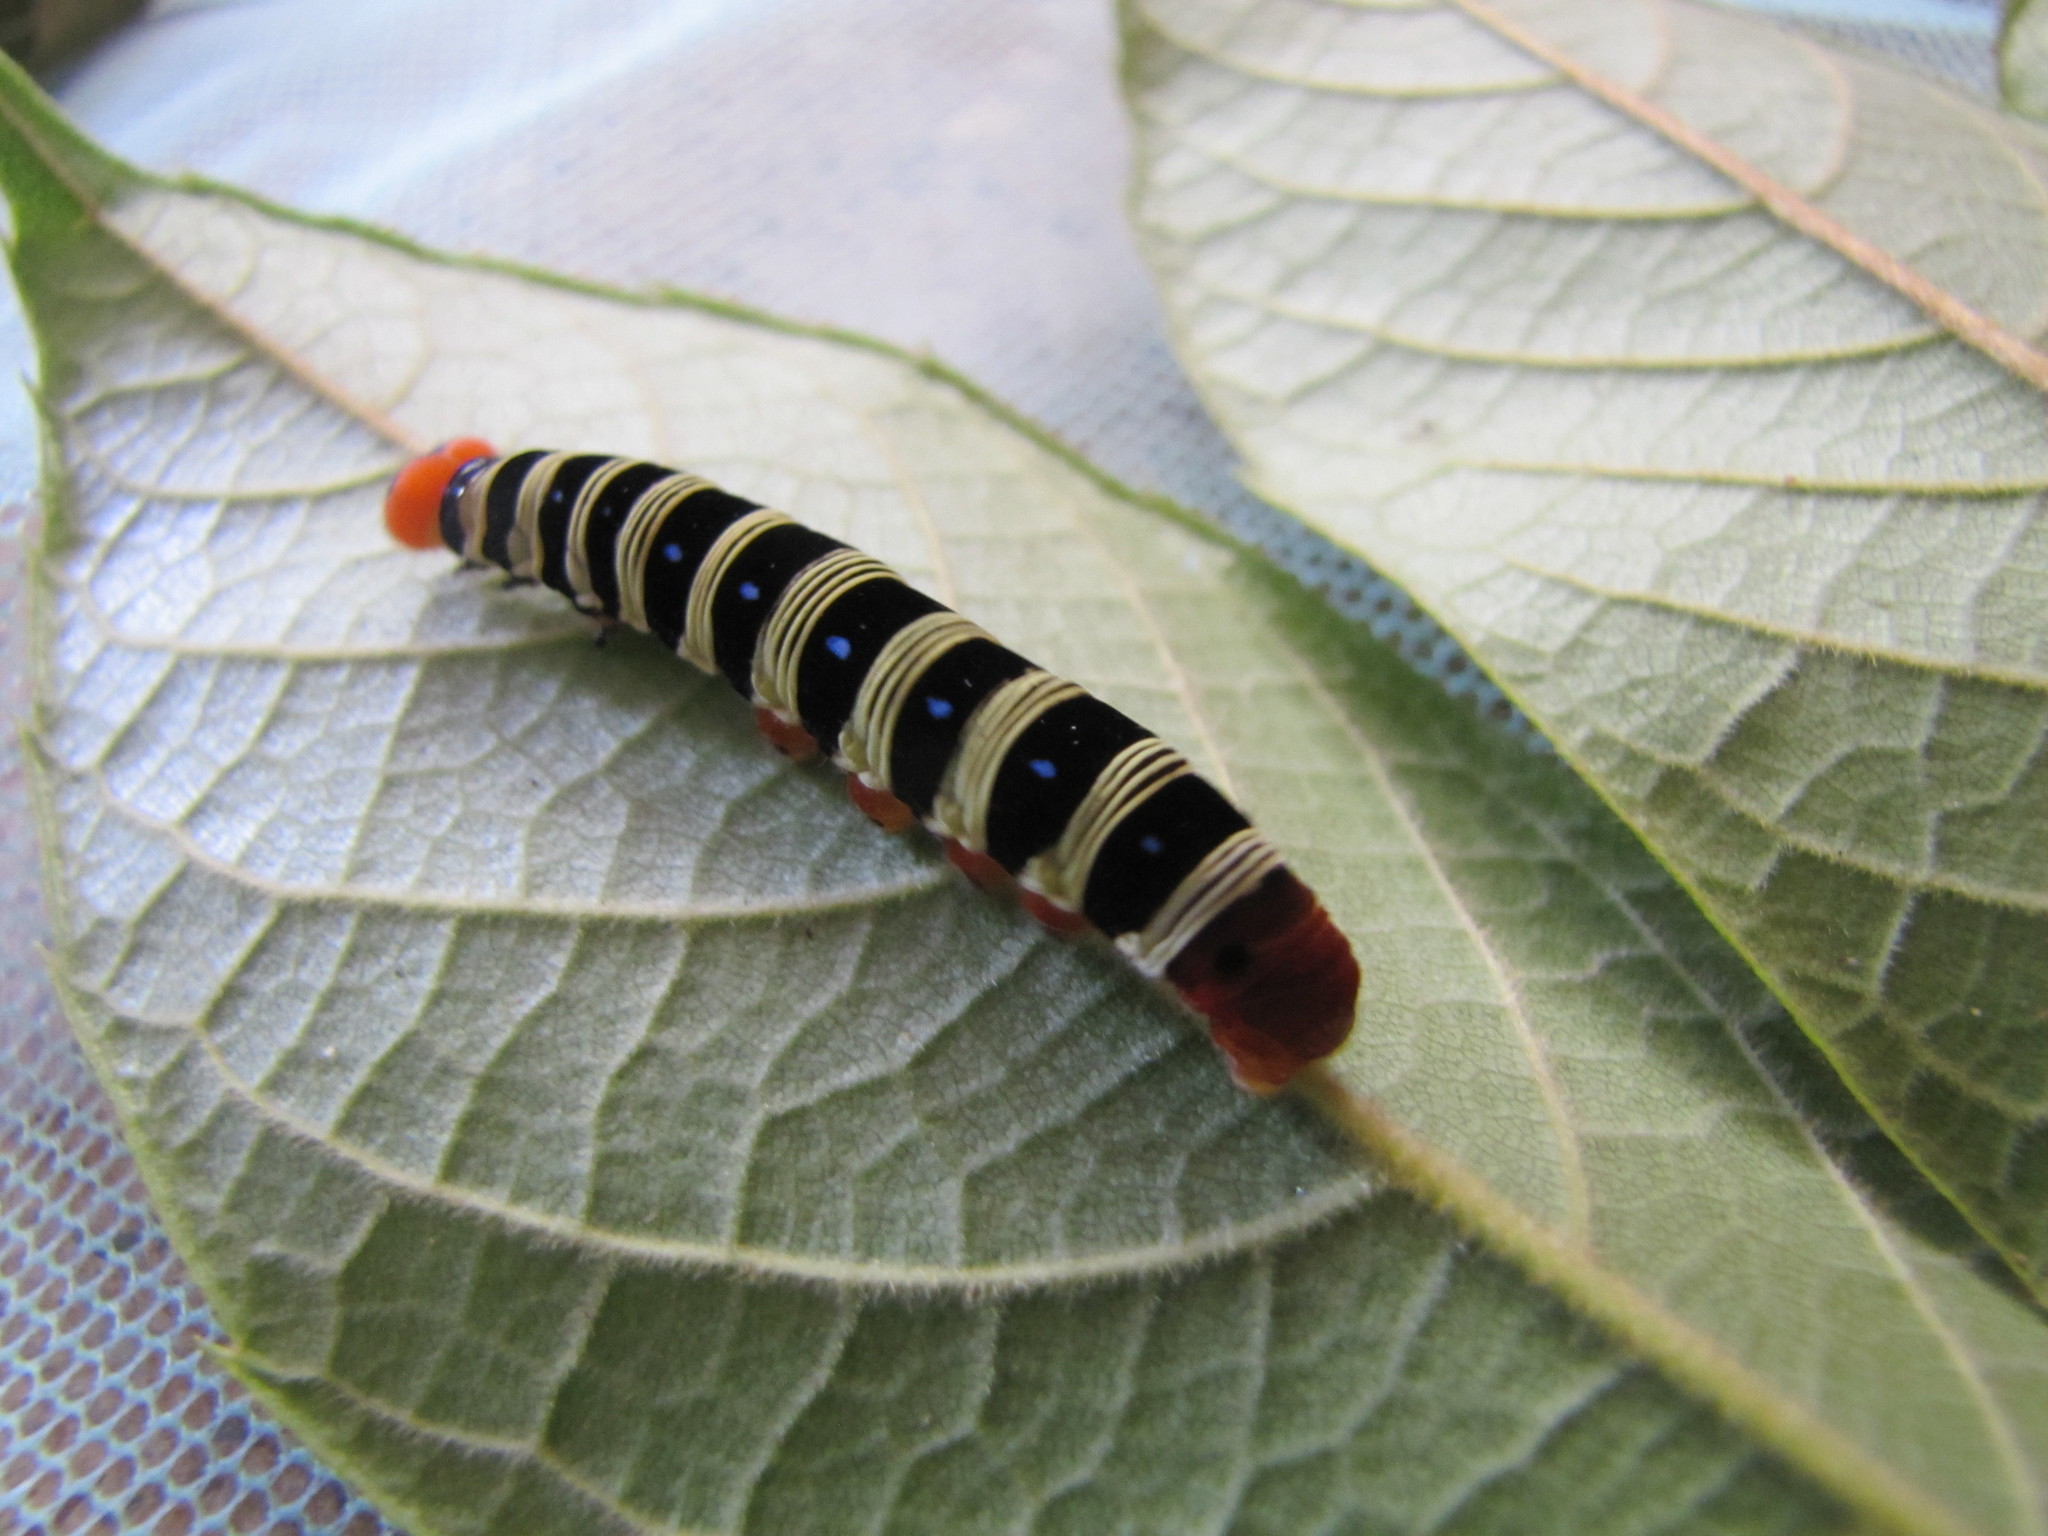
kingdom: Animalia
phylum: Arthropoda
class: Insecta
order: Lepidoptera
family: Hesperiidae
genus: Choaspes
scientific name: Choaspes benjaminii
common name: Indian awlking
